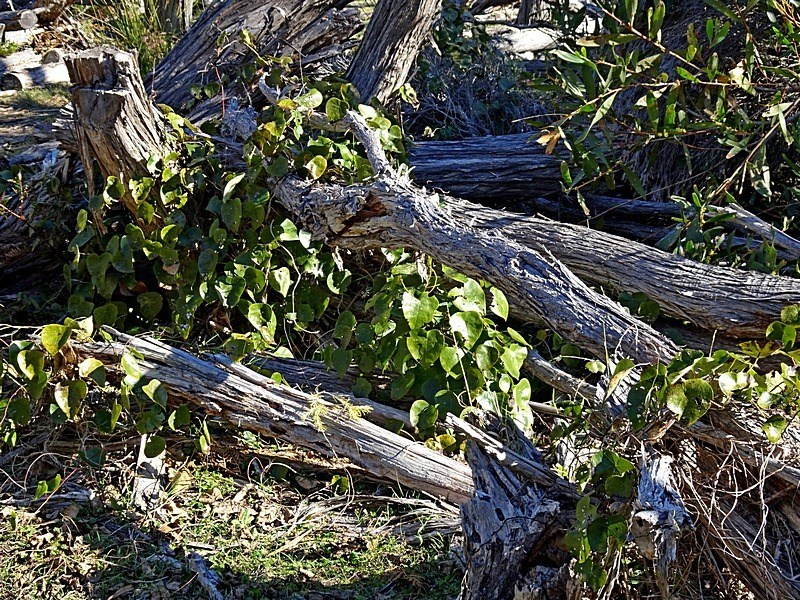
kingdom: Plantae
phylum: Tracheophyta
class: Magnoliopsida
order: Ranunculales
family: Menispermaceae
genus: Stephania
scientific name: Stephania japonica
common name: Snake vine
